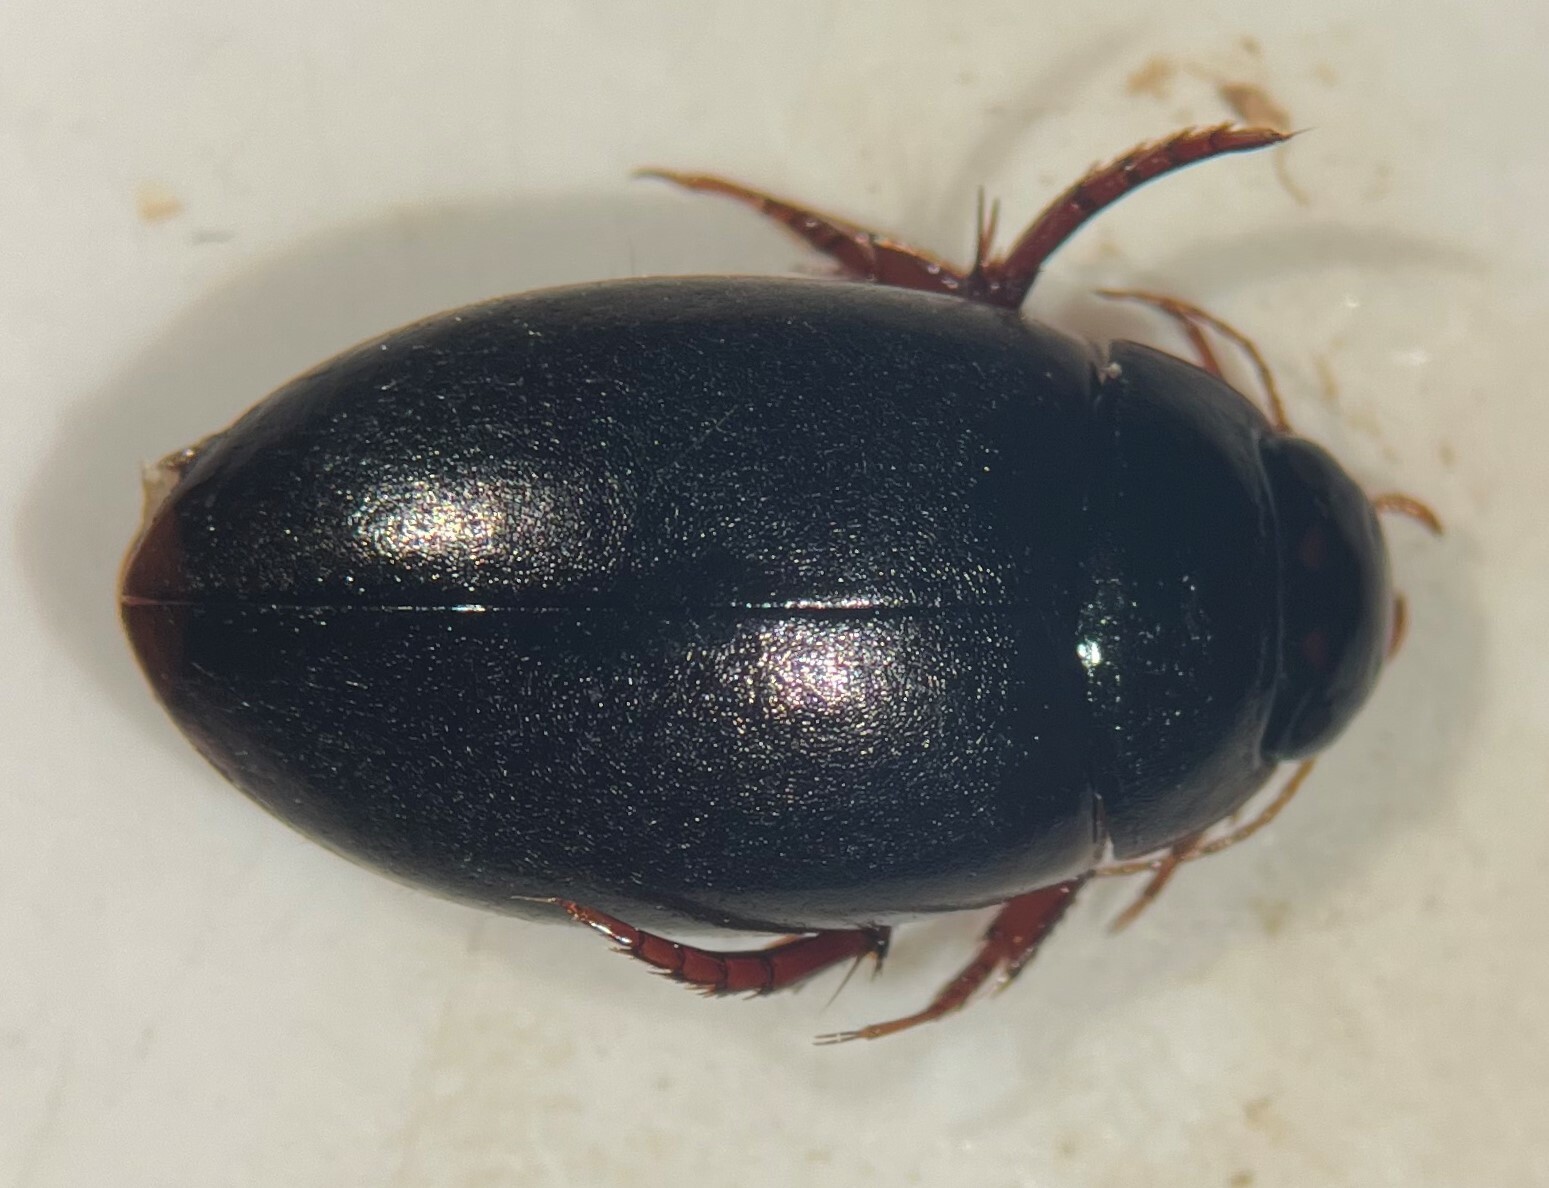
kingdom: Animalia
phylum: Arthropoda
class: Insecta
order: Coleoptera
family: Dytiscidae
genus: Agabus
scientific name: Agabus ambiguus
